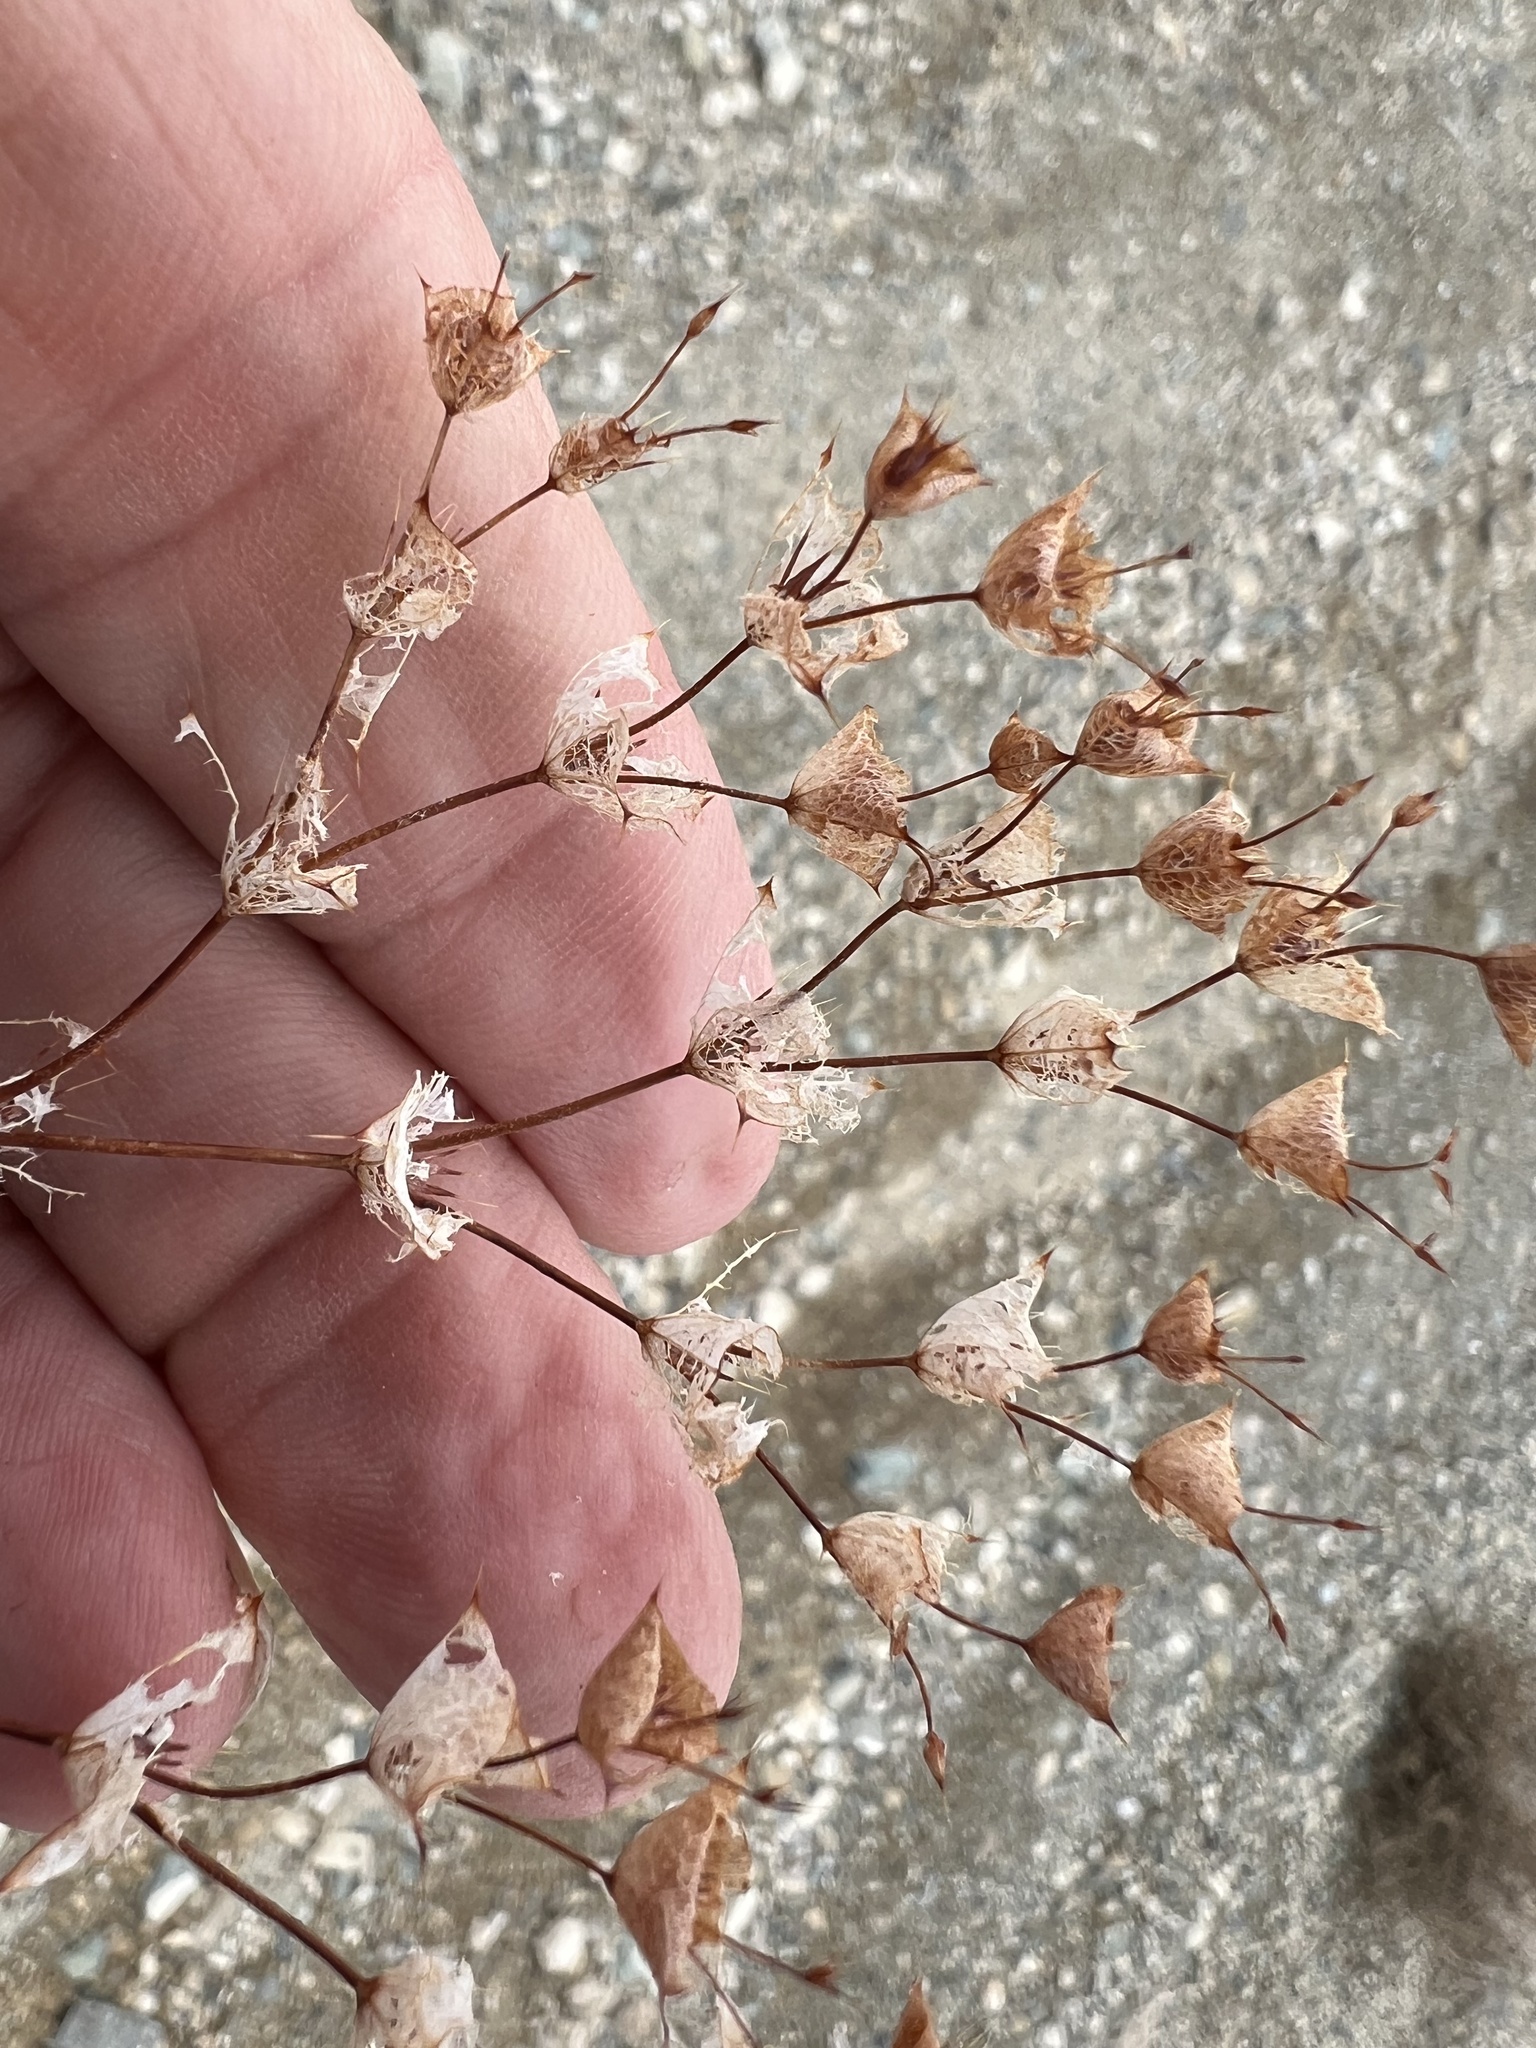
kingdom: Plantae
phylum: Tracheophyta
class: Magnoliopsida
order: Caryophyllales
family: Polygonaceae
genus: Oxytheca
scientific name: Oxytheca perfoliata
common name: Round-leaf puncturebract
